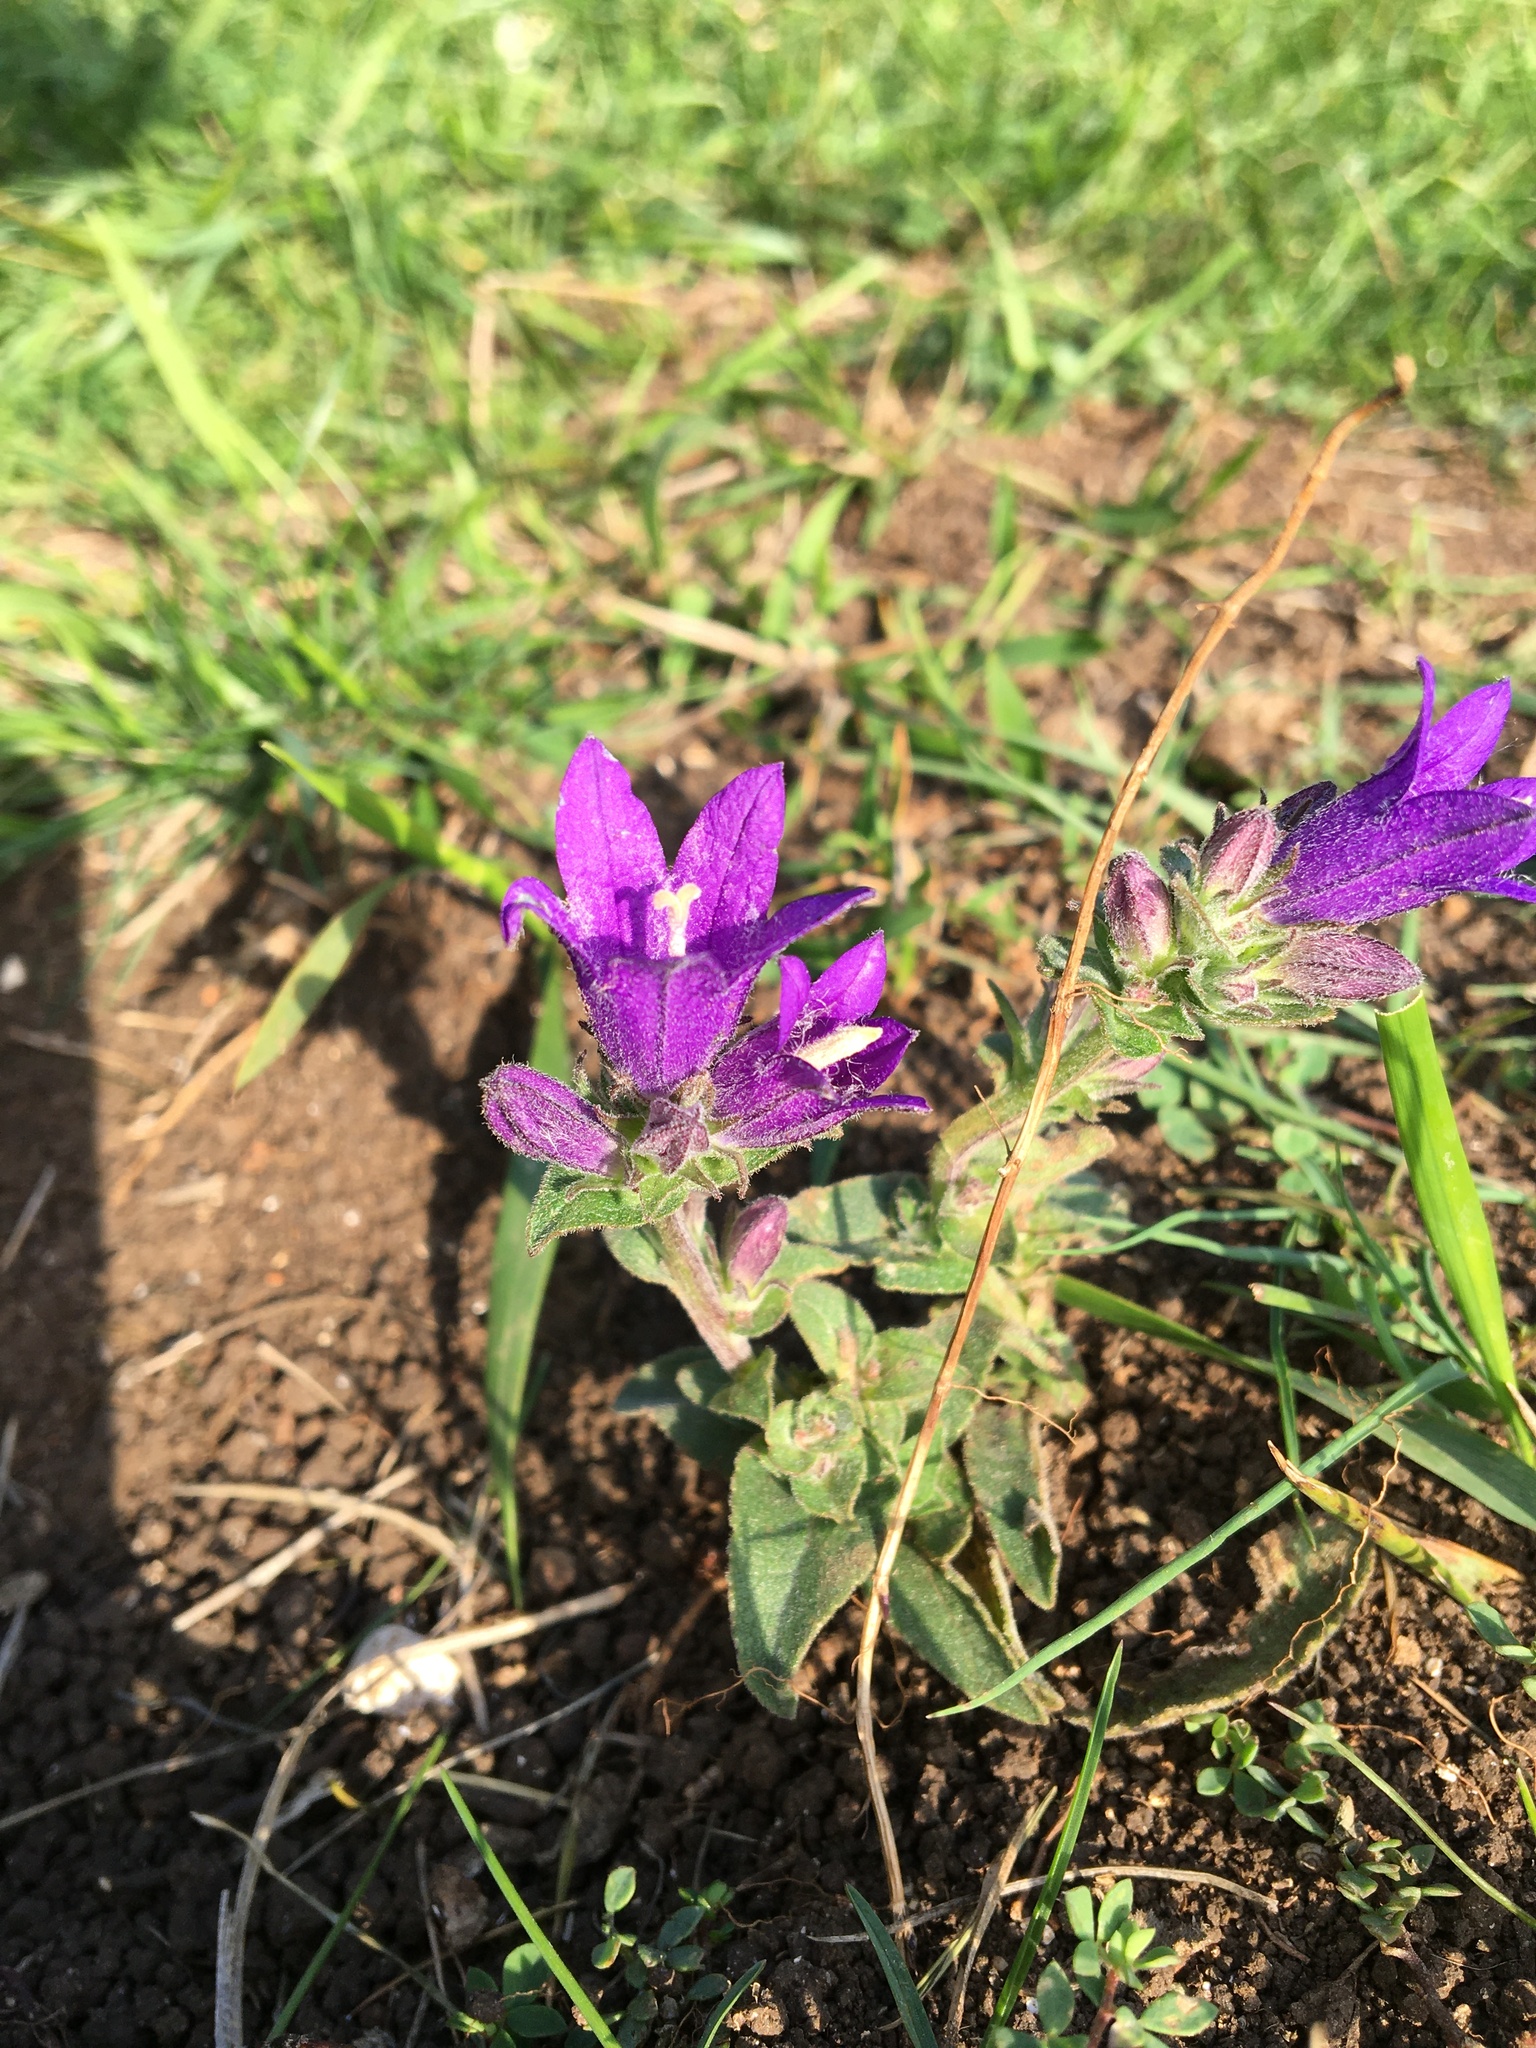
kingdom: Plantae
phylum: Tracheophyta
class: Magnoliopsida
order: Asterales
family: Campanulaceae
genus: Campanula
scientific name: Campanula glomerata
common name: Clustered bellflower
